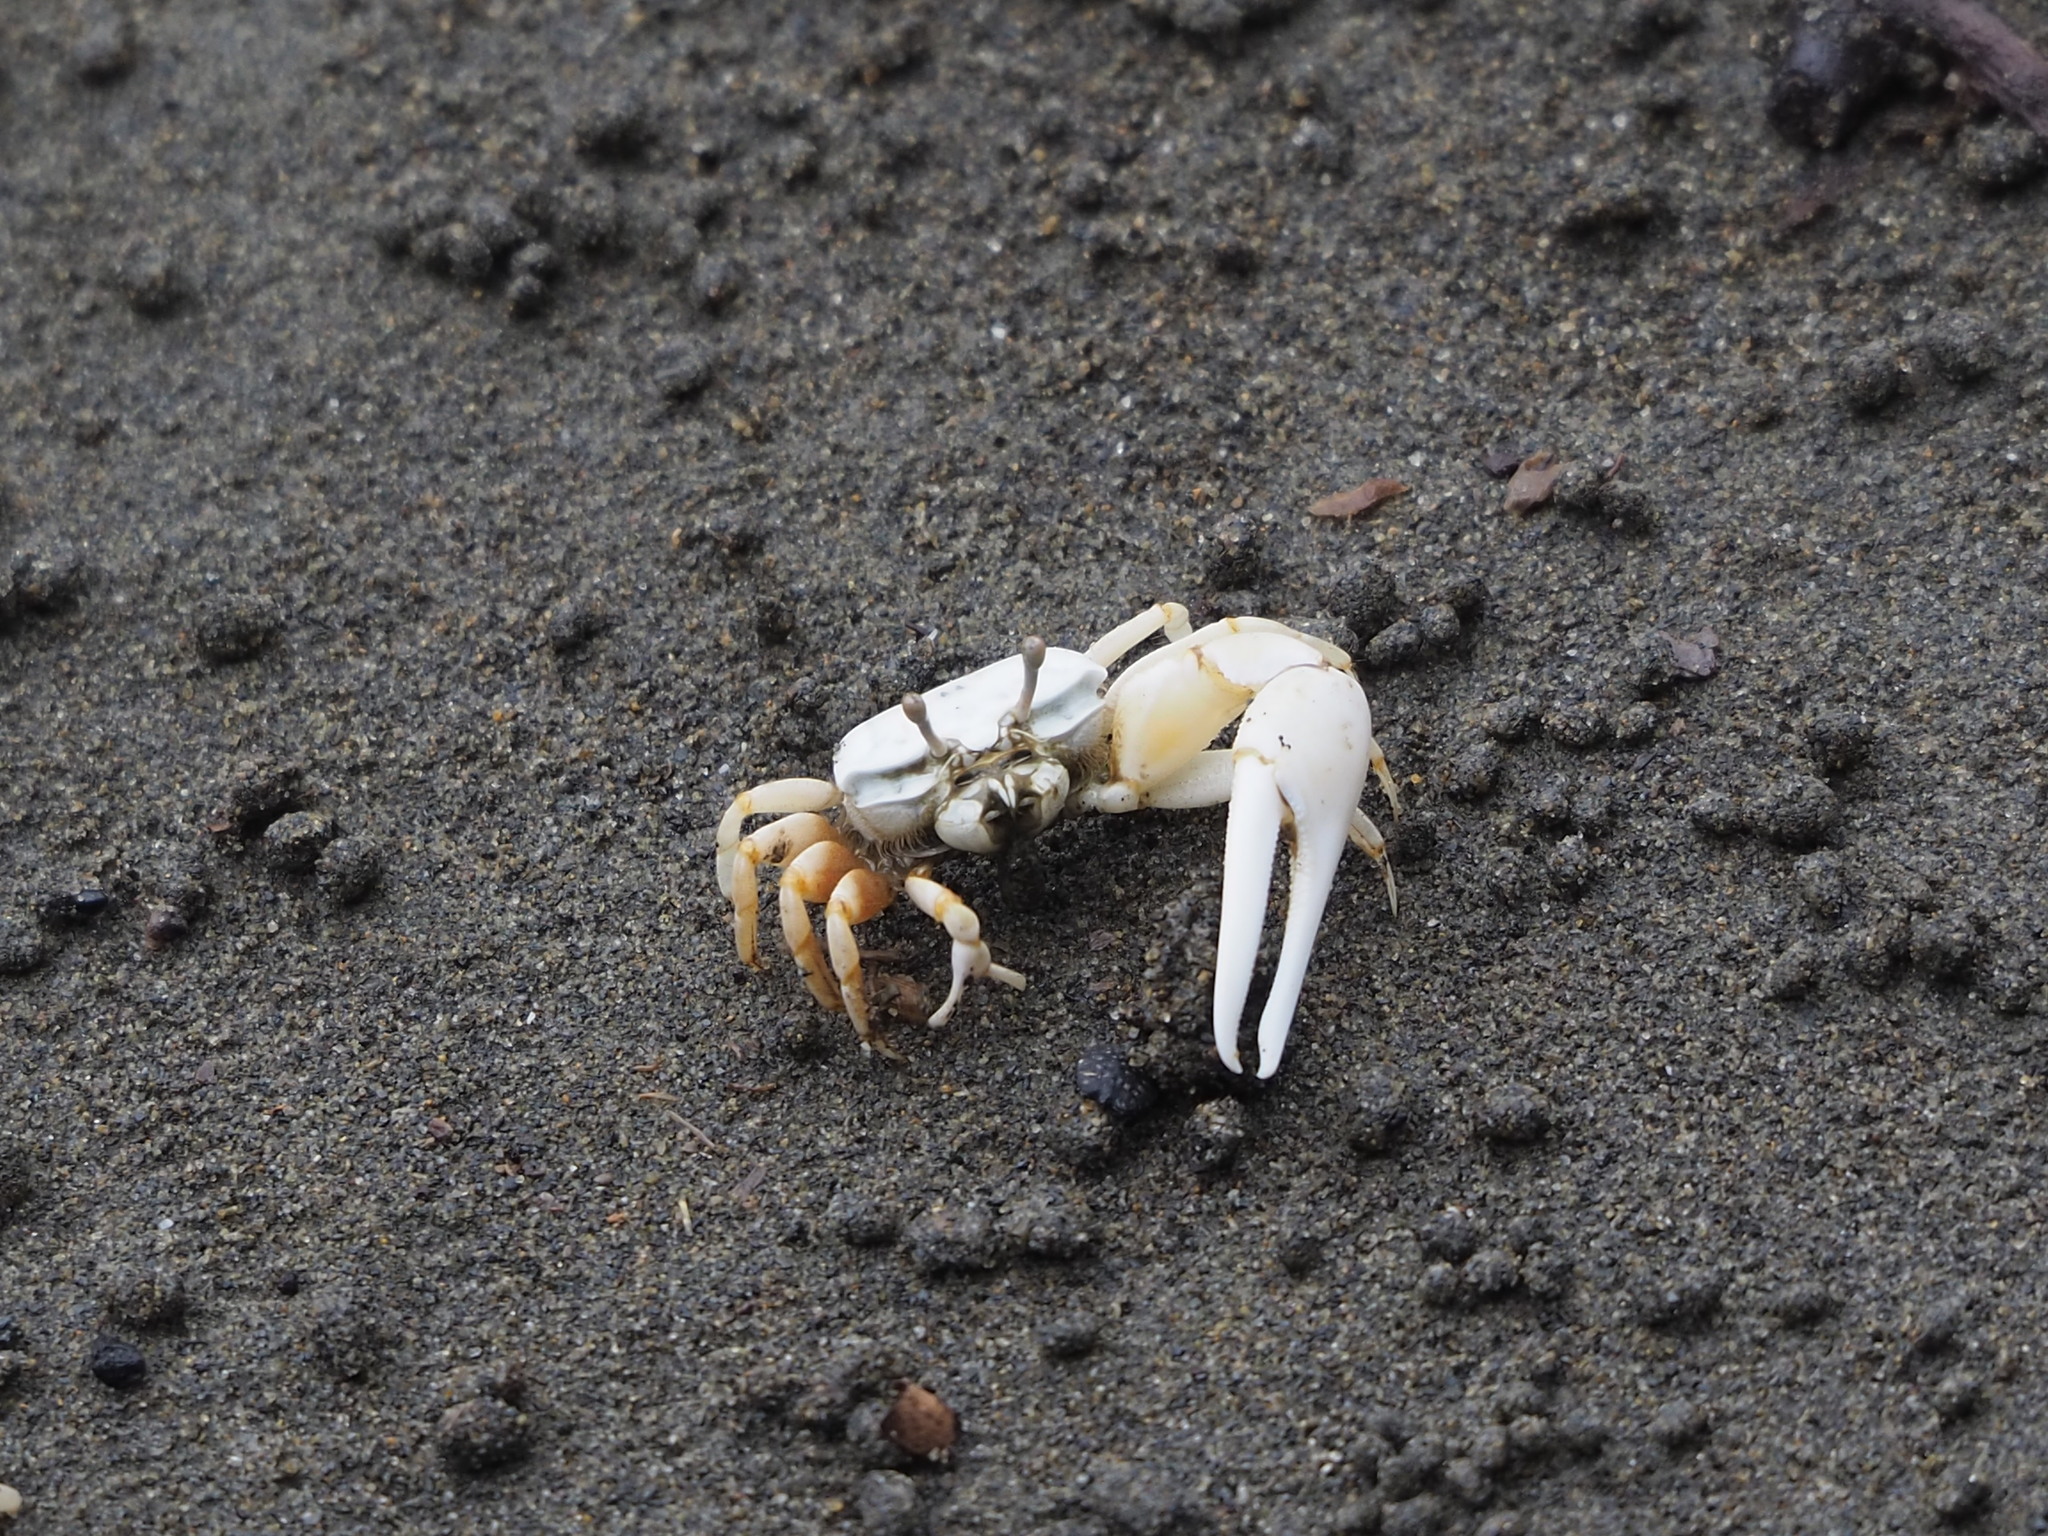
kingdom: Animalia
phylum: Arthropoda
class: Malacostraca
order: Decapoda
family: Ocypodidae
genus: Austruca
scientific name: Austruca lactea
